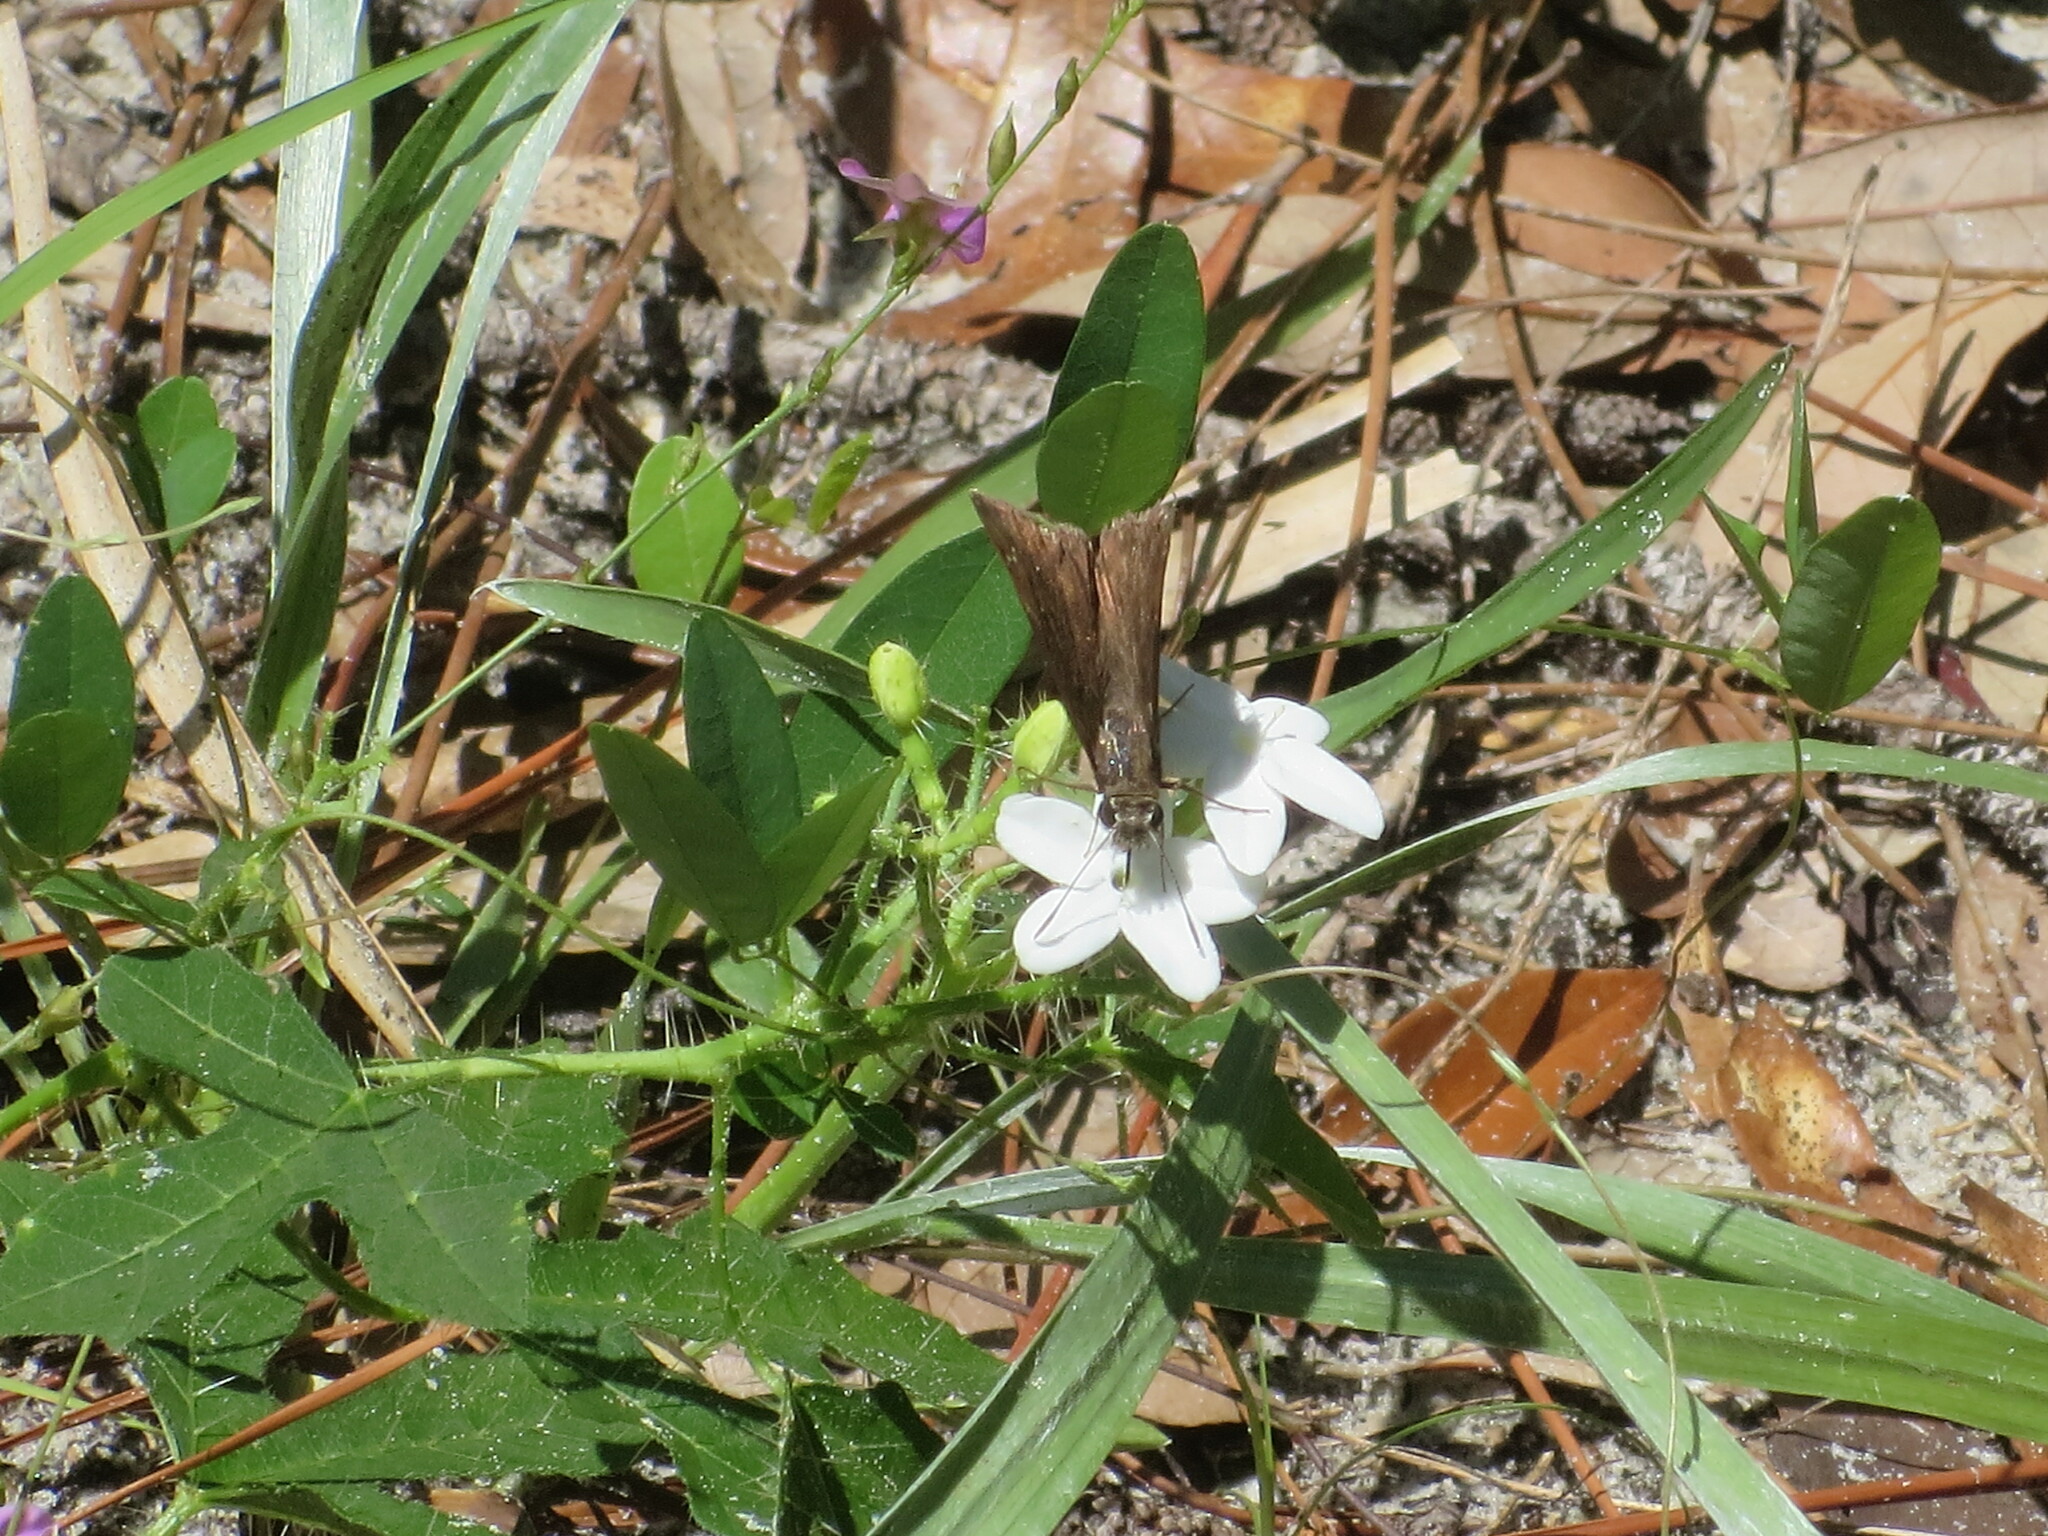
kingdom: Plantae
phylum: Tracheophyta
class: Magnoliopsida
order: Malpighiales
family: Euphorbiaceae
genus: Cnidoscolus
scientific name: Cnidoscolus stimulosus
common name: Bull-nettle
